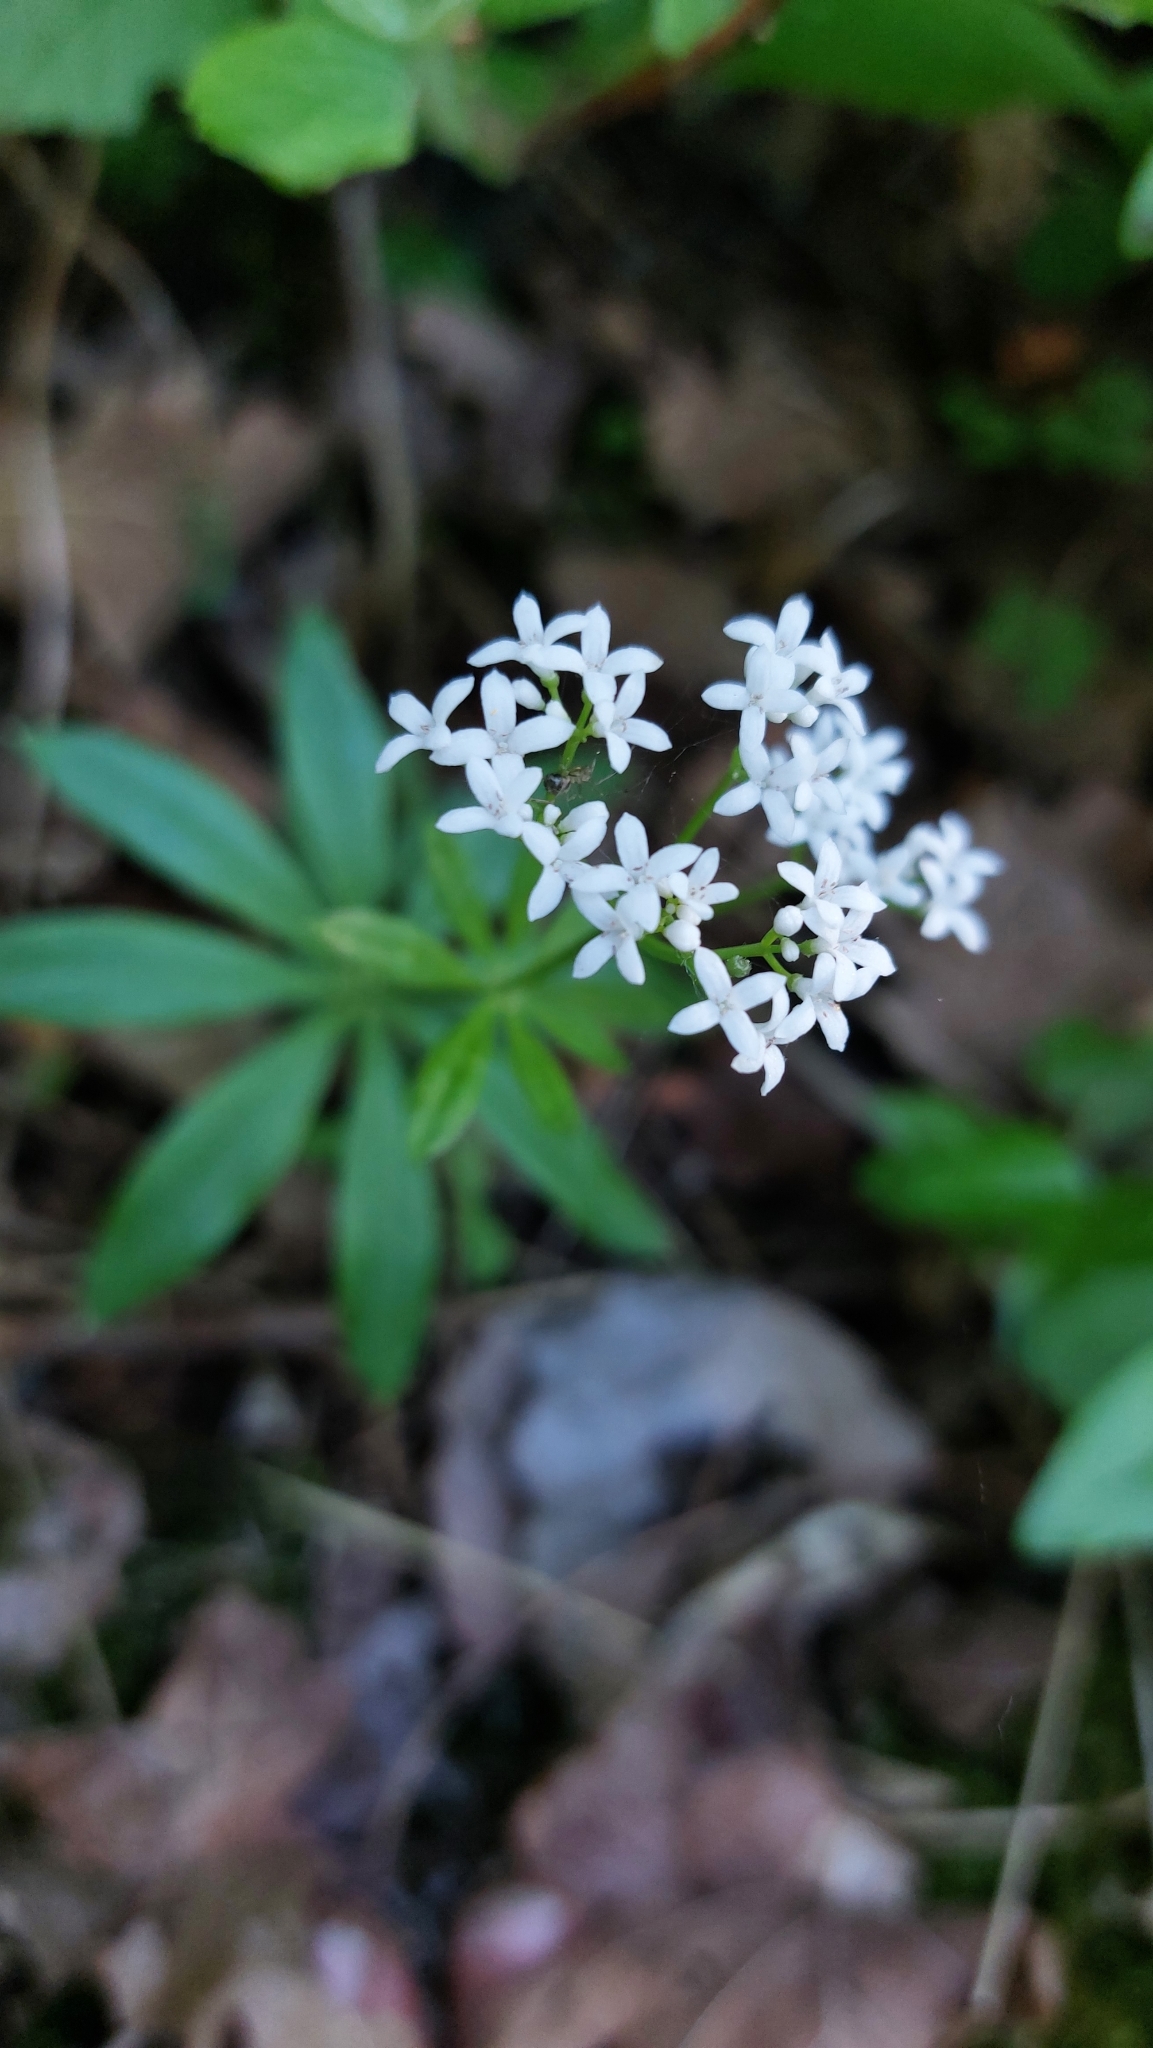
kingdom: Plantae
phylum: Tracheophyta
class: Magnoliopsida
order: Gentianales
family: Rubiaceae
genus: Galium
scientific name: Galium odoratum
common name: Sweet woodruff
